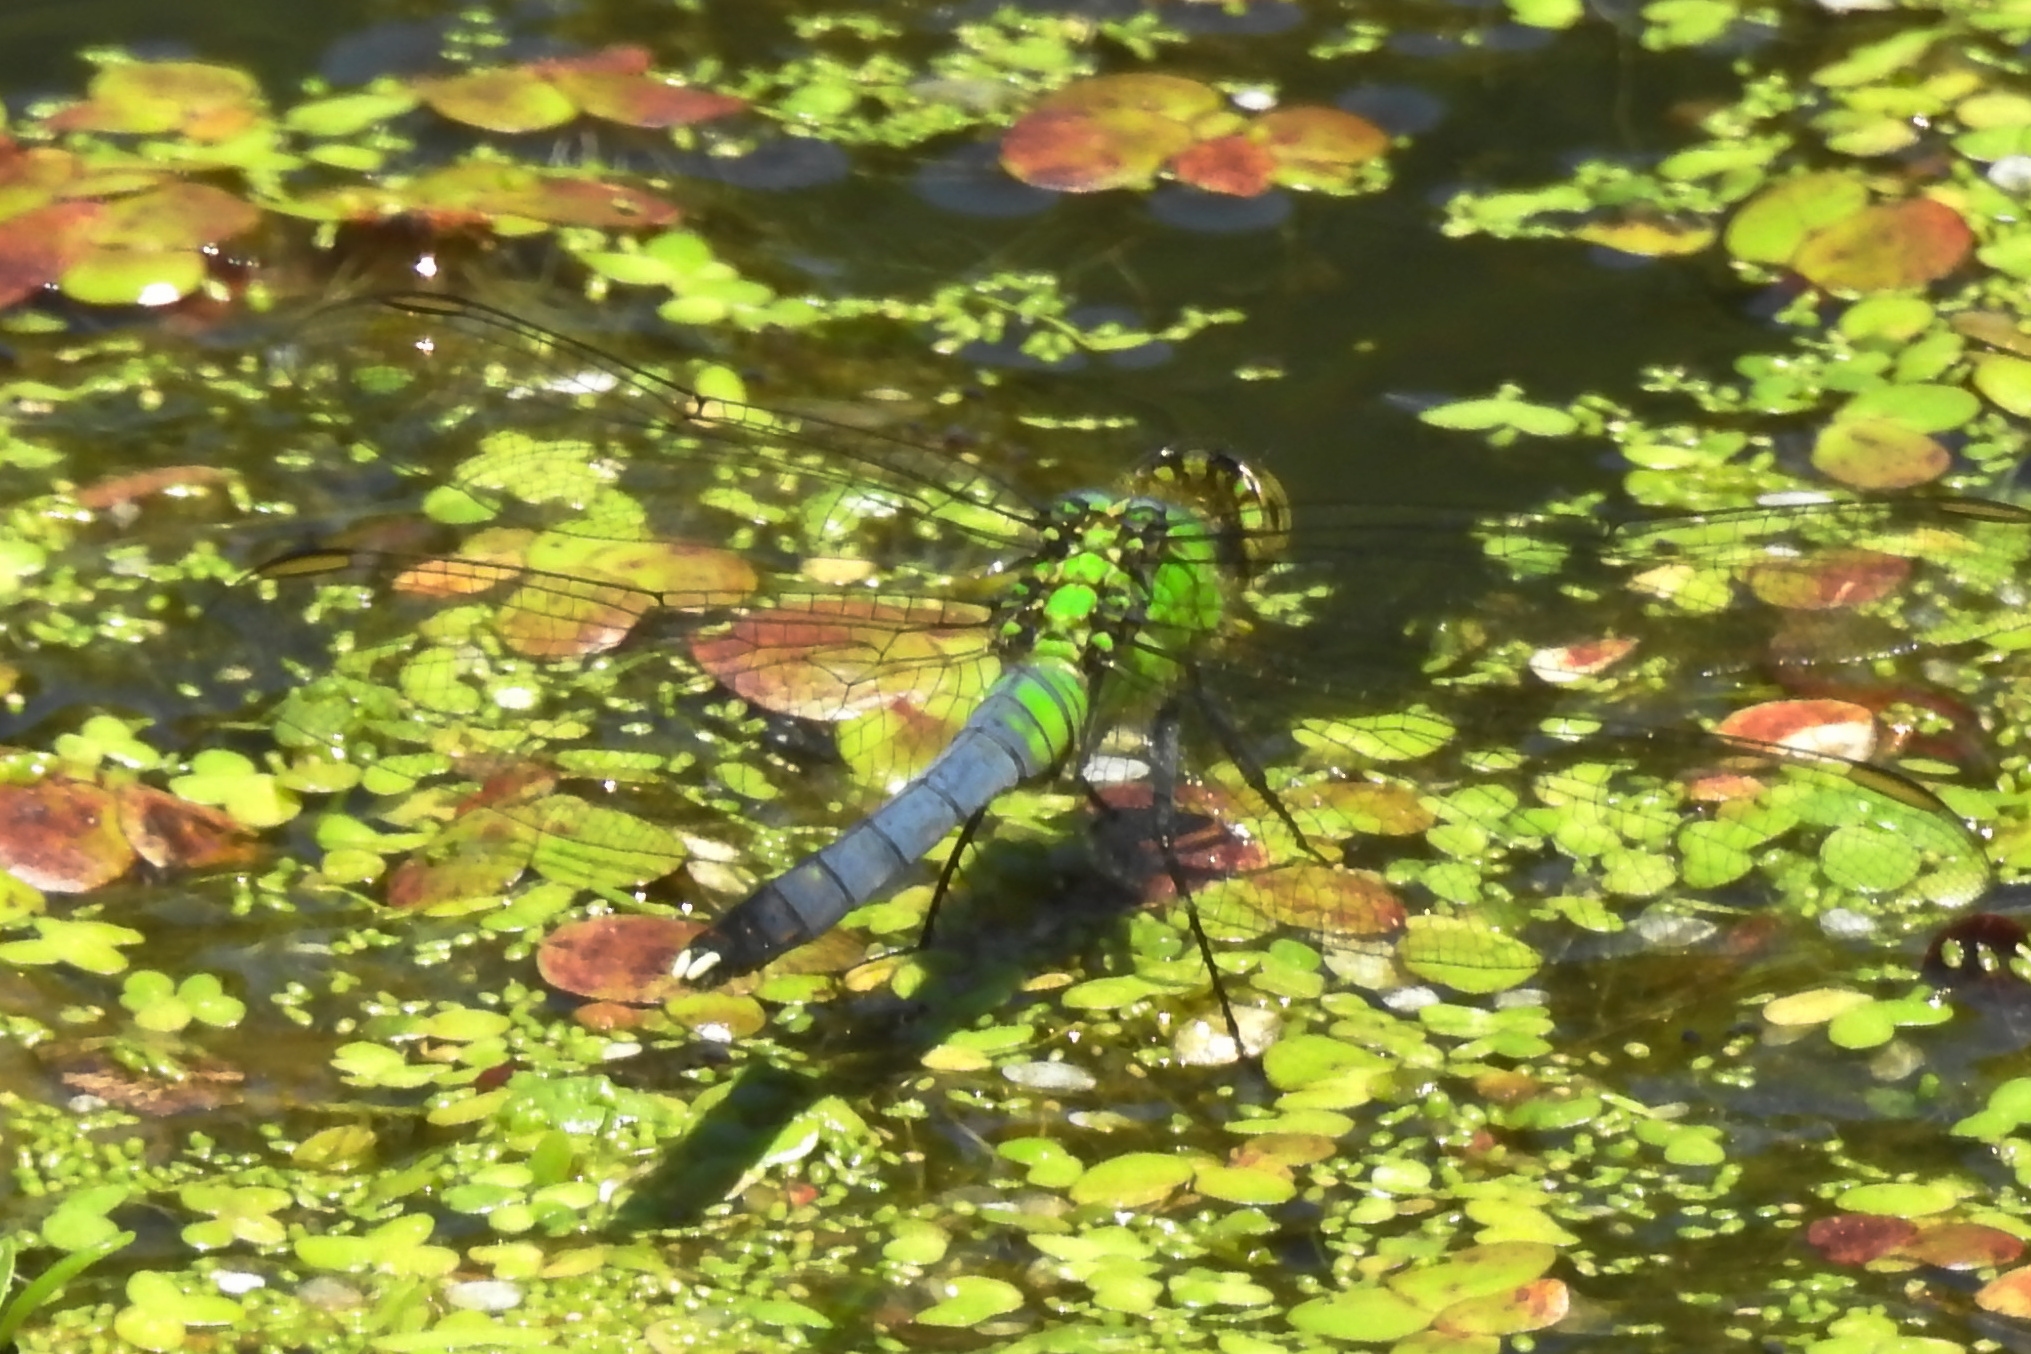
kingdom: Animalia
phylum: Arthropoda
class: Insecta
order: Odonata
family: Libellulidae
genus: Erythemis
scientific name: Erythemis simplicicollis
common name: Eastern pondhawk
